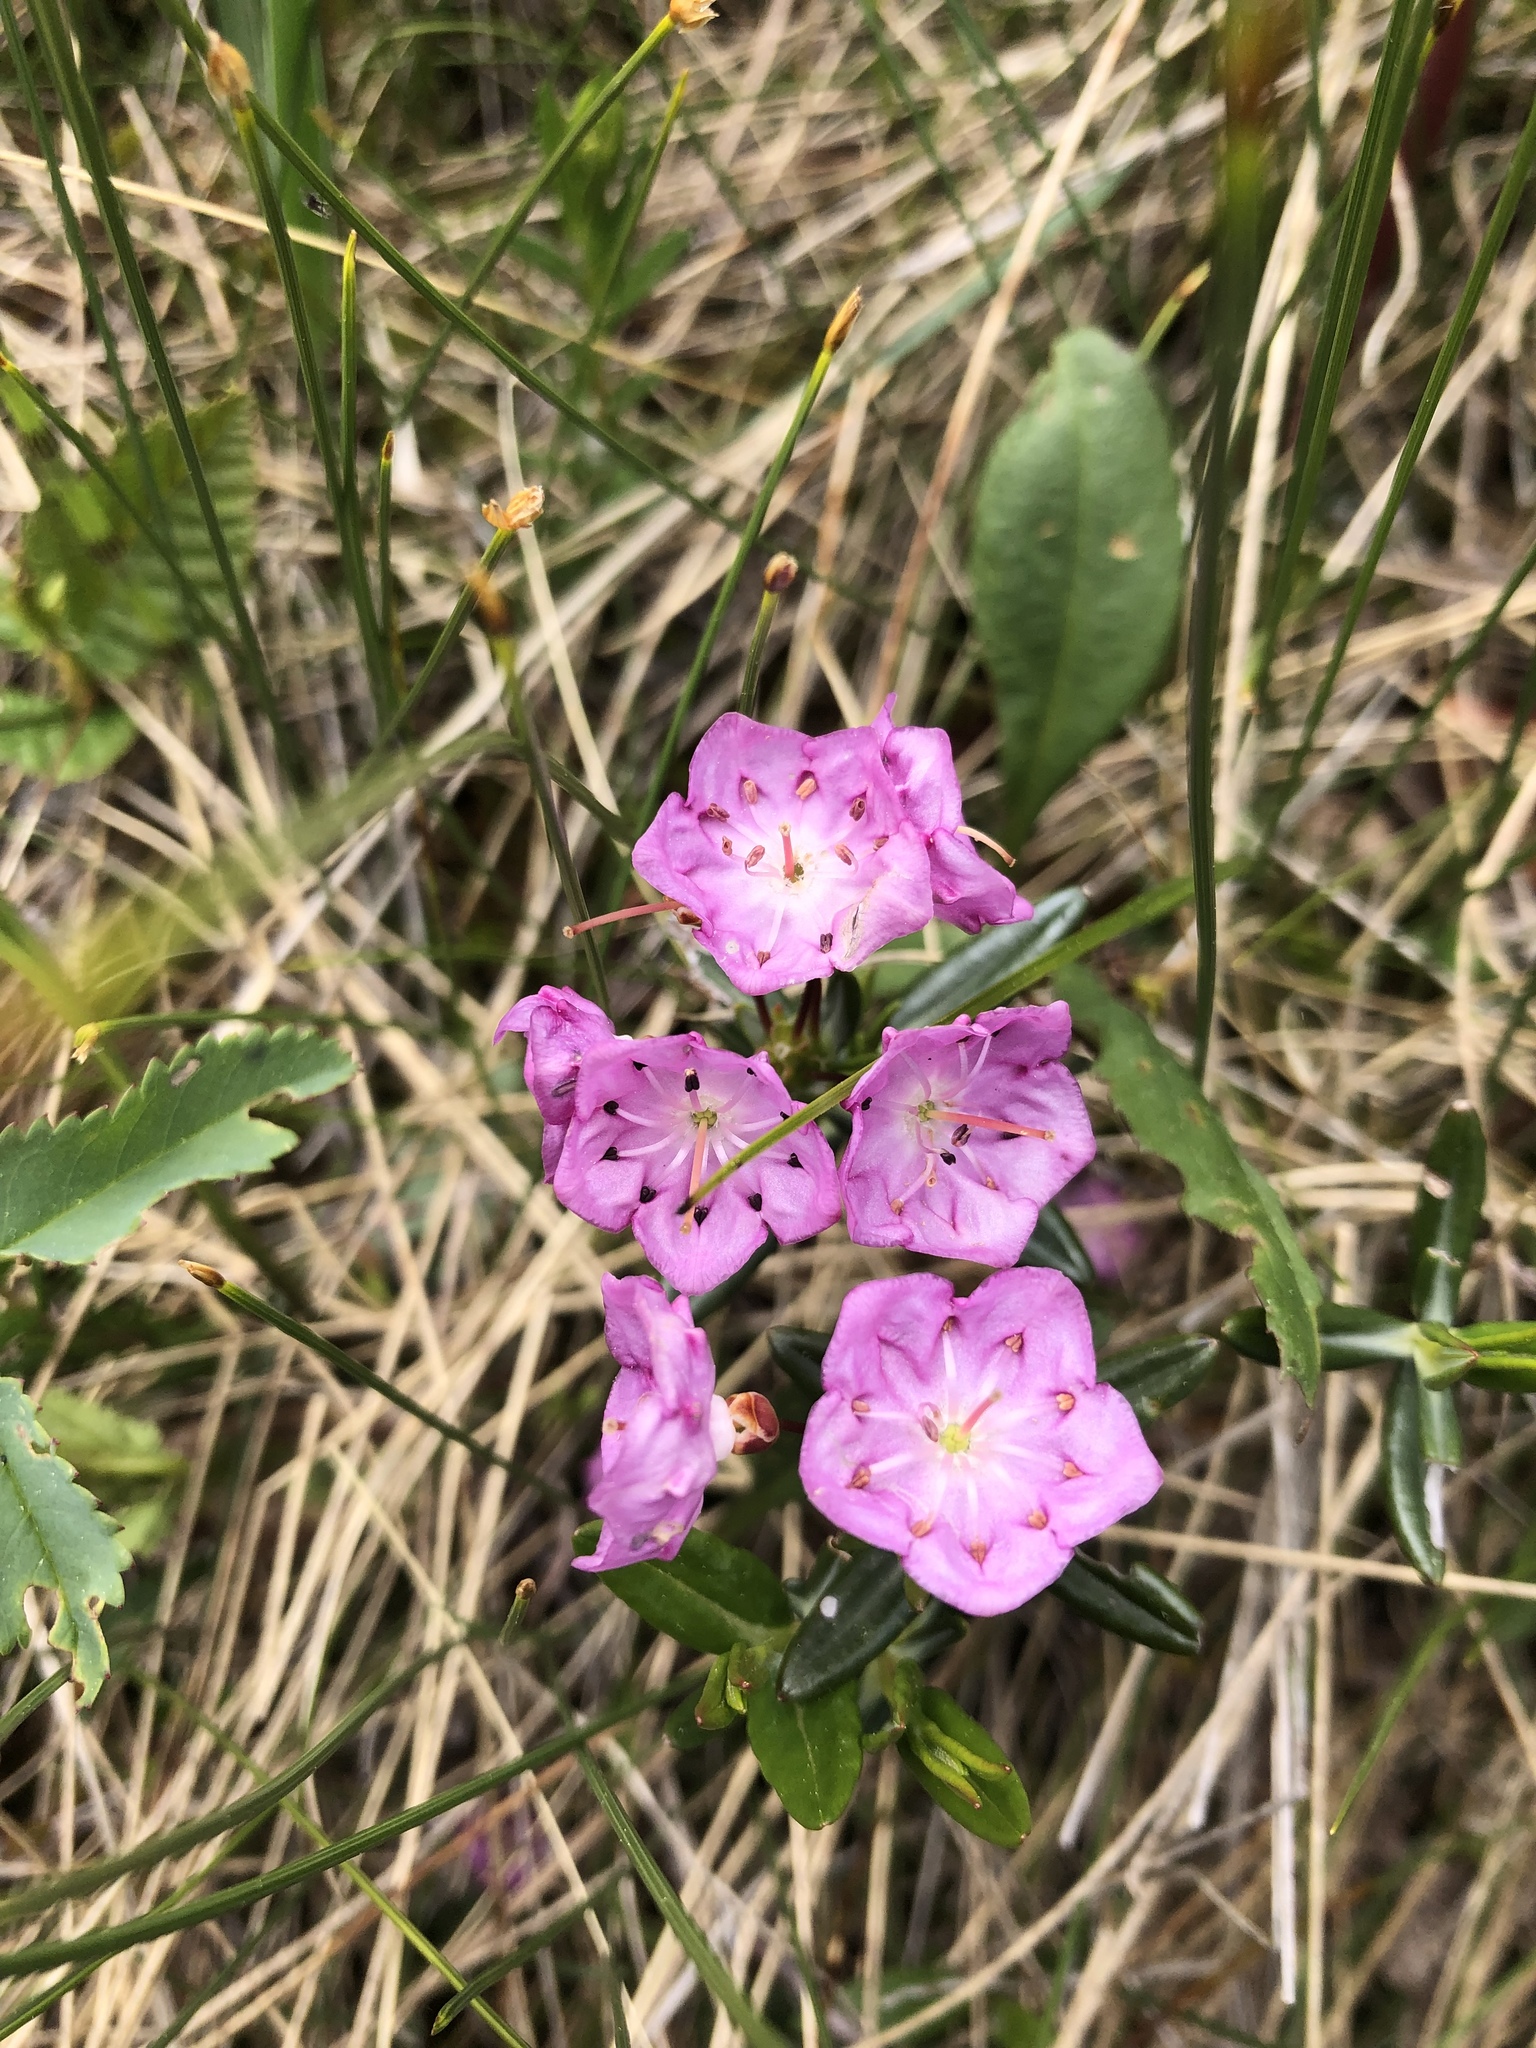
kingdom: Plantae
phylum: Tracheophyta
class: Magnoliopsida
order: Ericales
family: Ericaceae
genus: Kalmia
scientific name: Kalmia polifolia
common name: Bog-laurel
